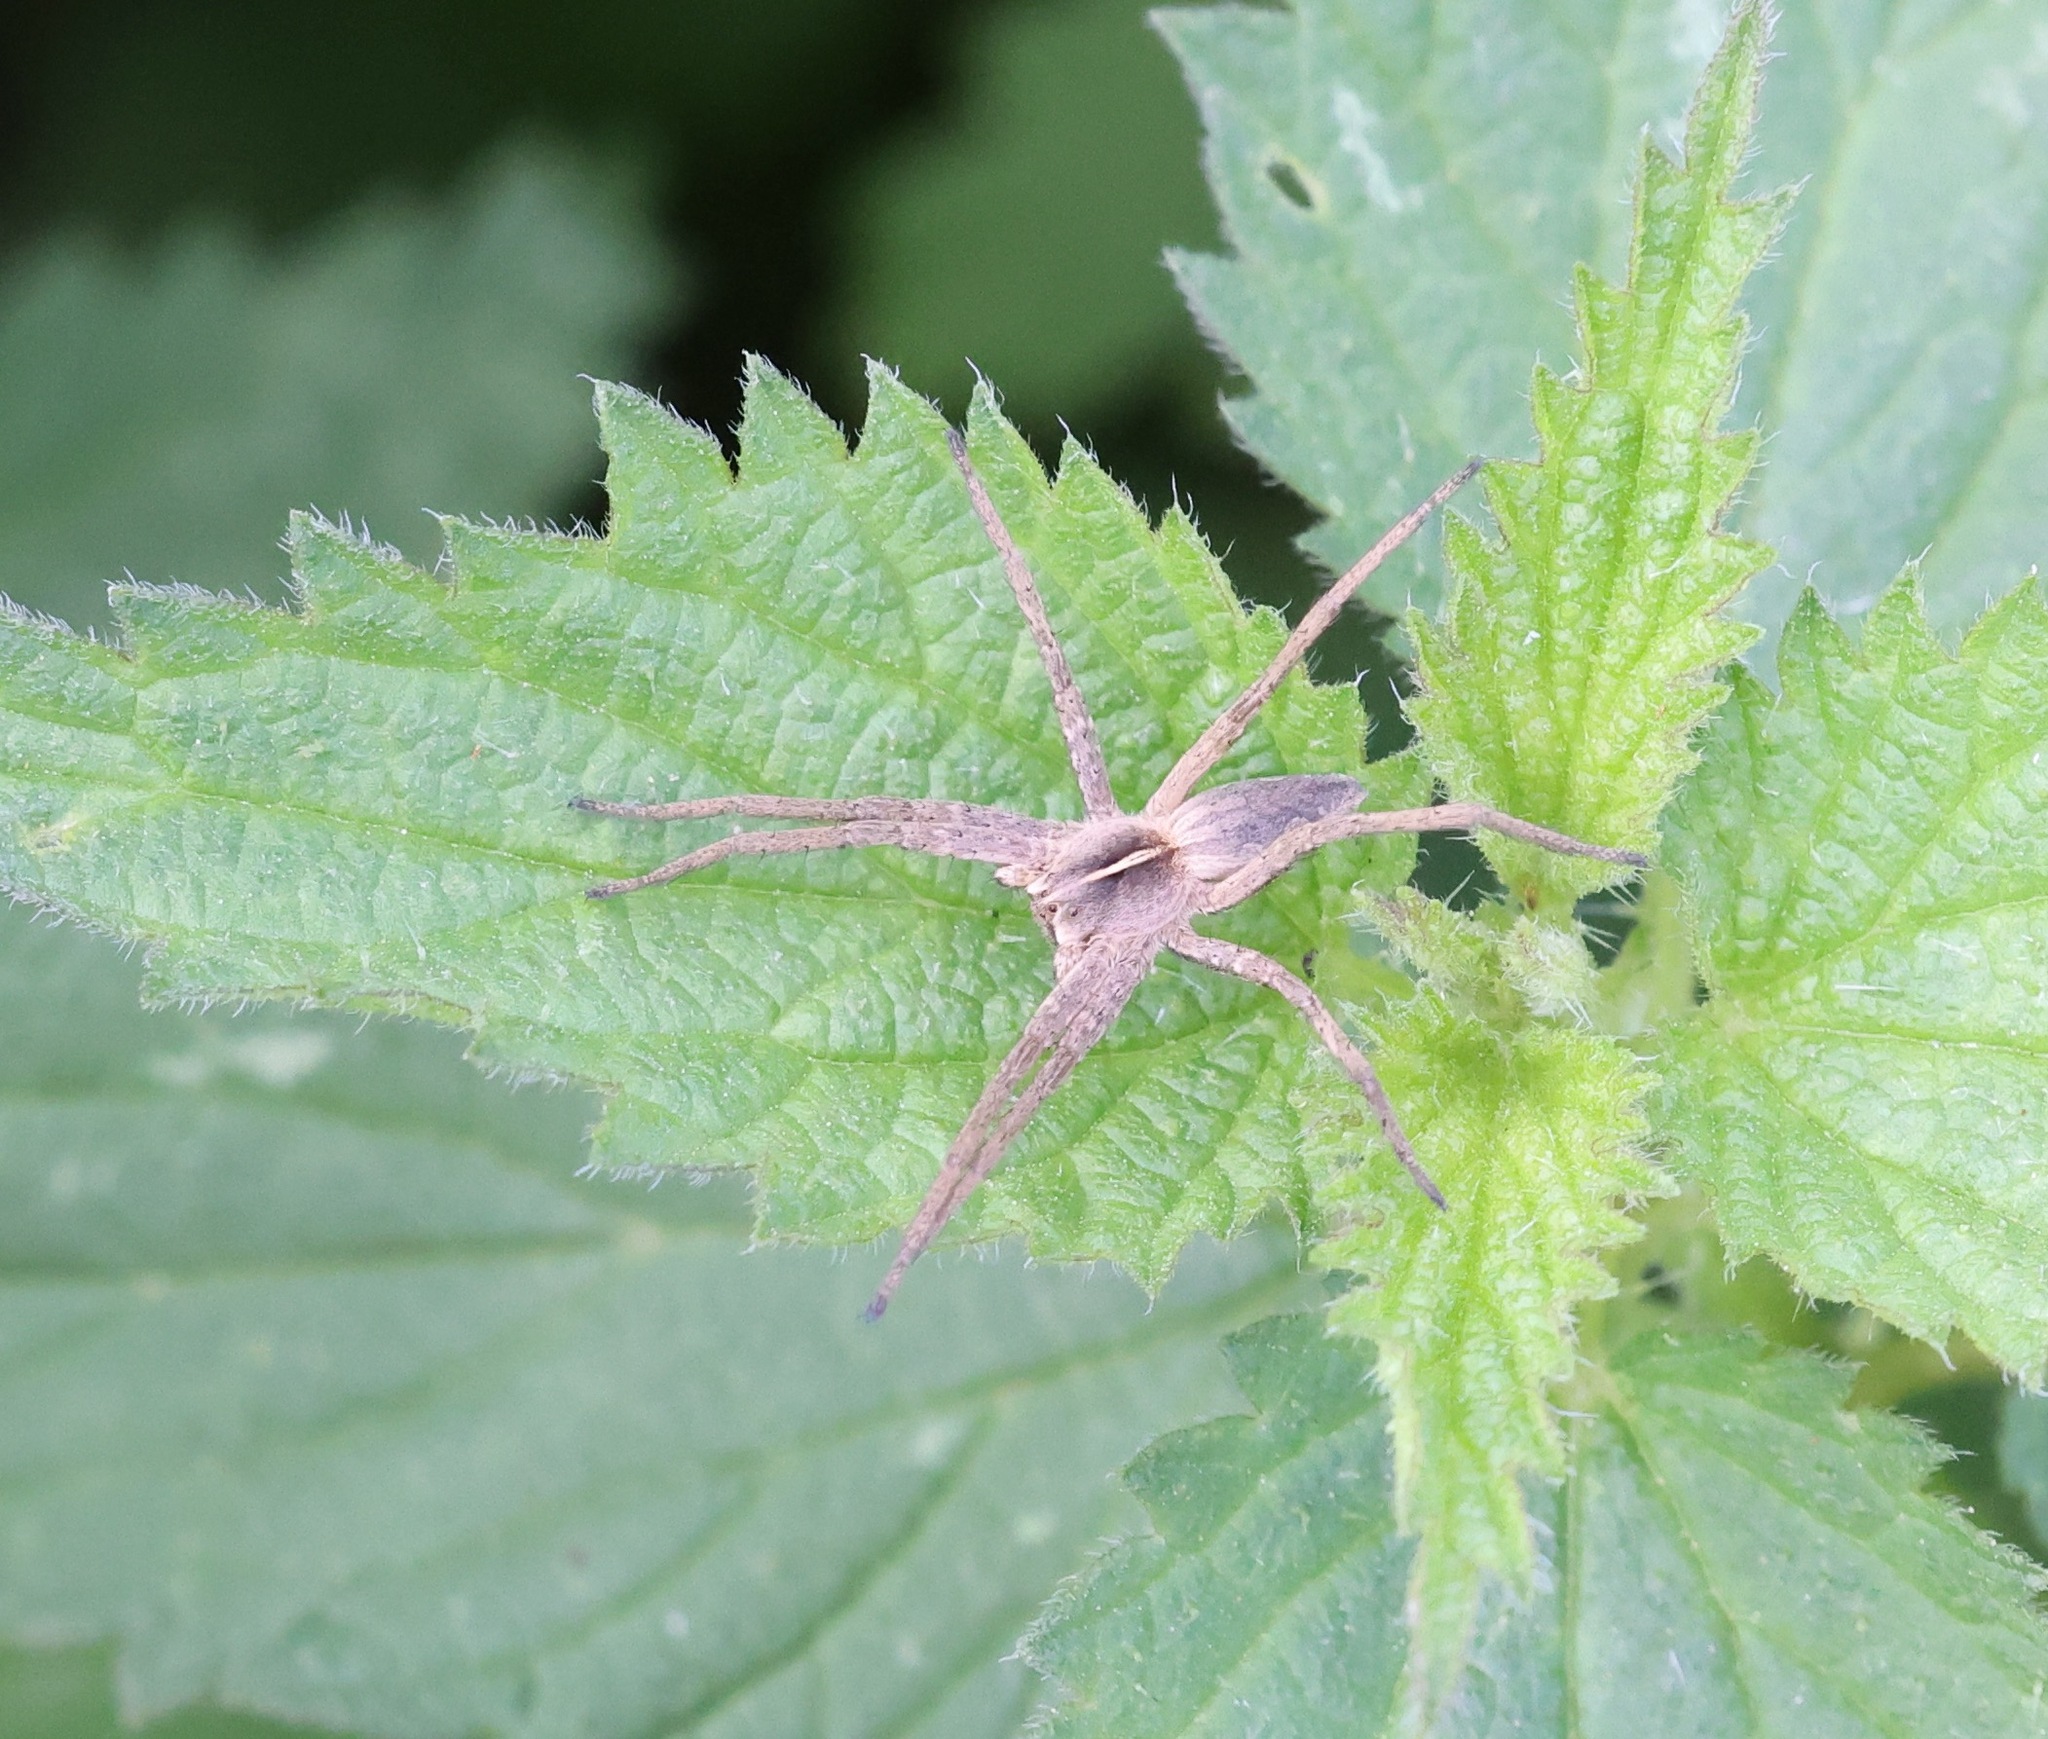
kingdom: Animalia
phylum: Arthropoda
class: Arachnida
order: Araneae
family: Pisauridae
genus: Pisaura
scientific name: Pisaura mirabilis
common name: Tent spider
